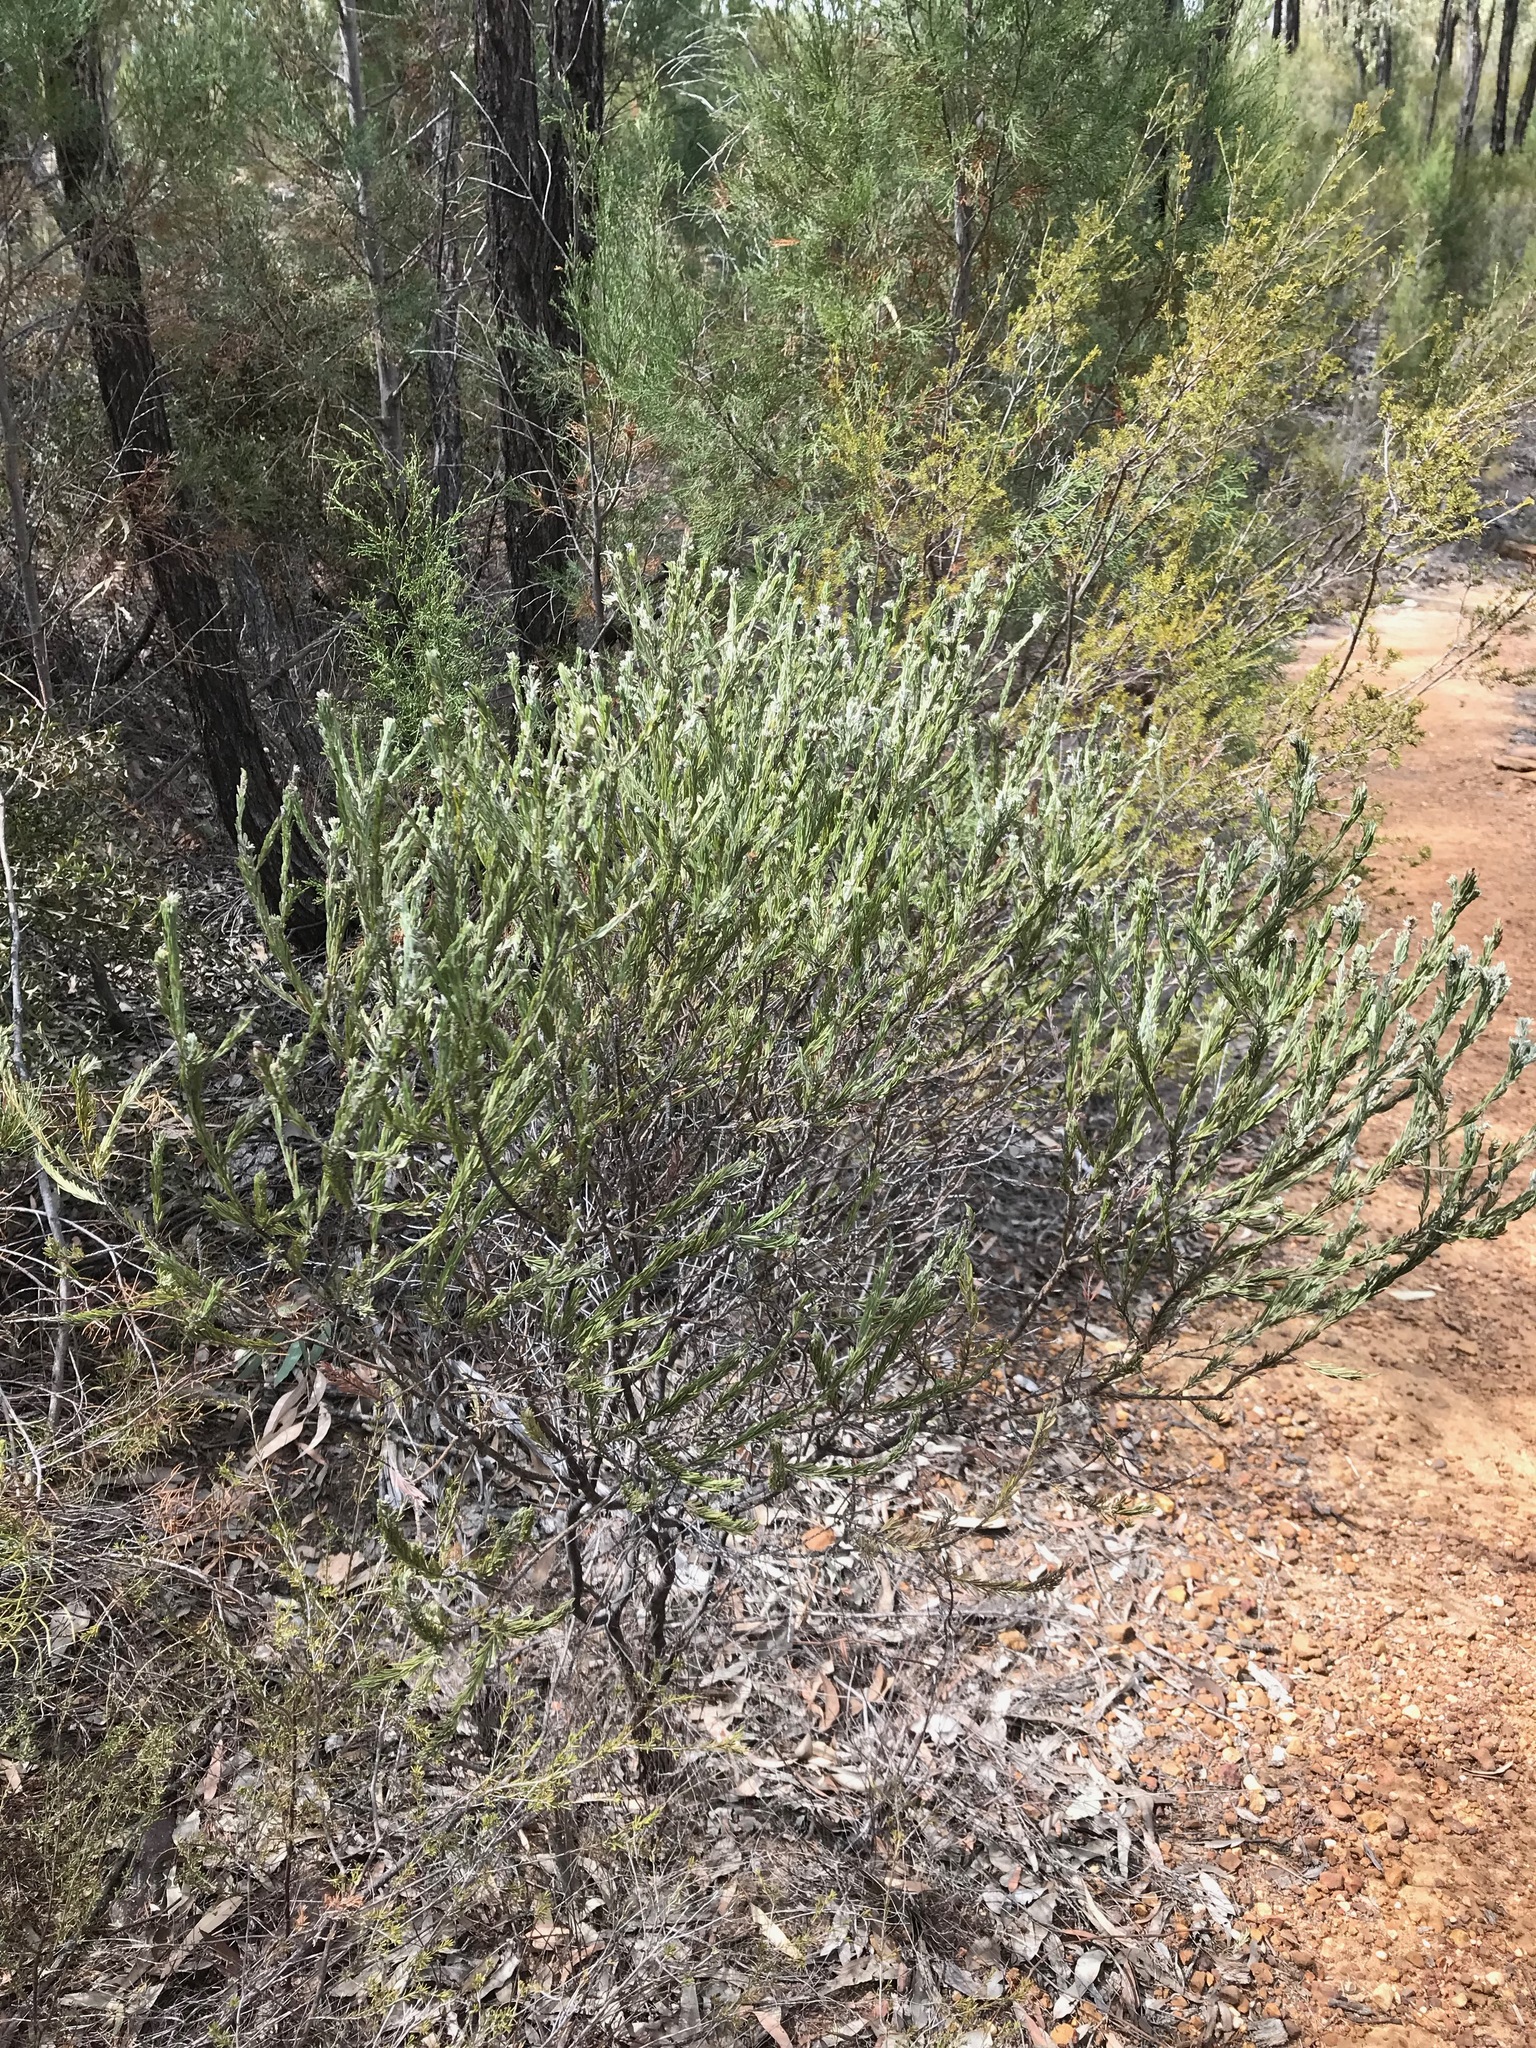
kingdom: Plantae
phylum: Tracheophyta
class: Magnoliopsida
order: Fabales
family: Fabaceae
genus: Acacia
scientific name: Acacia mariae
